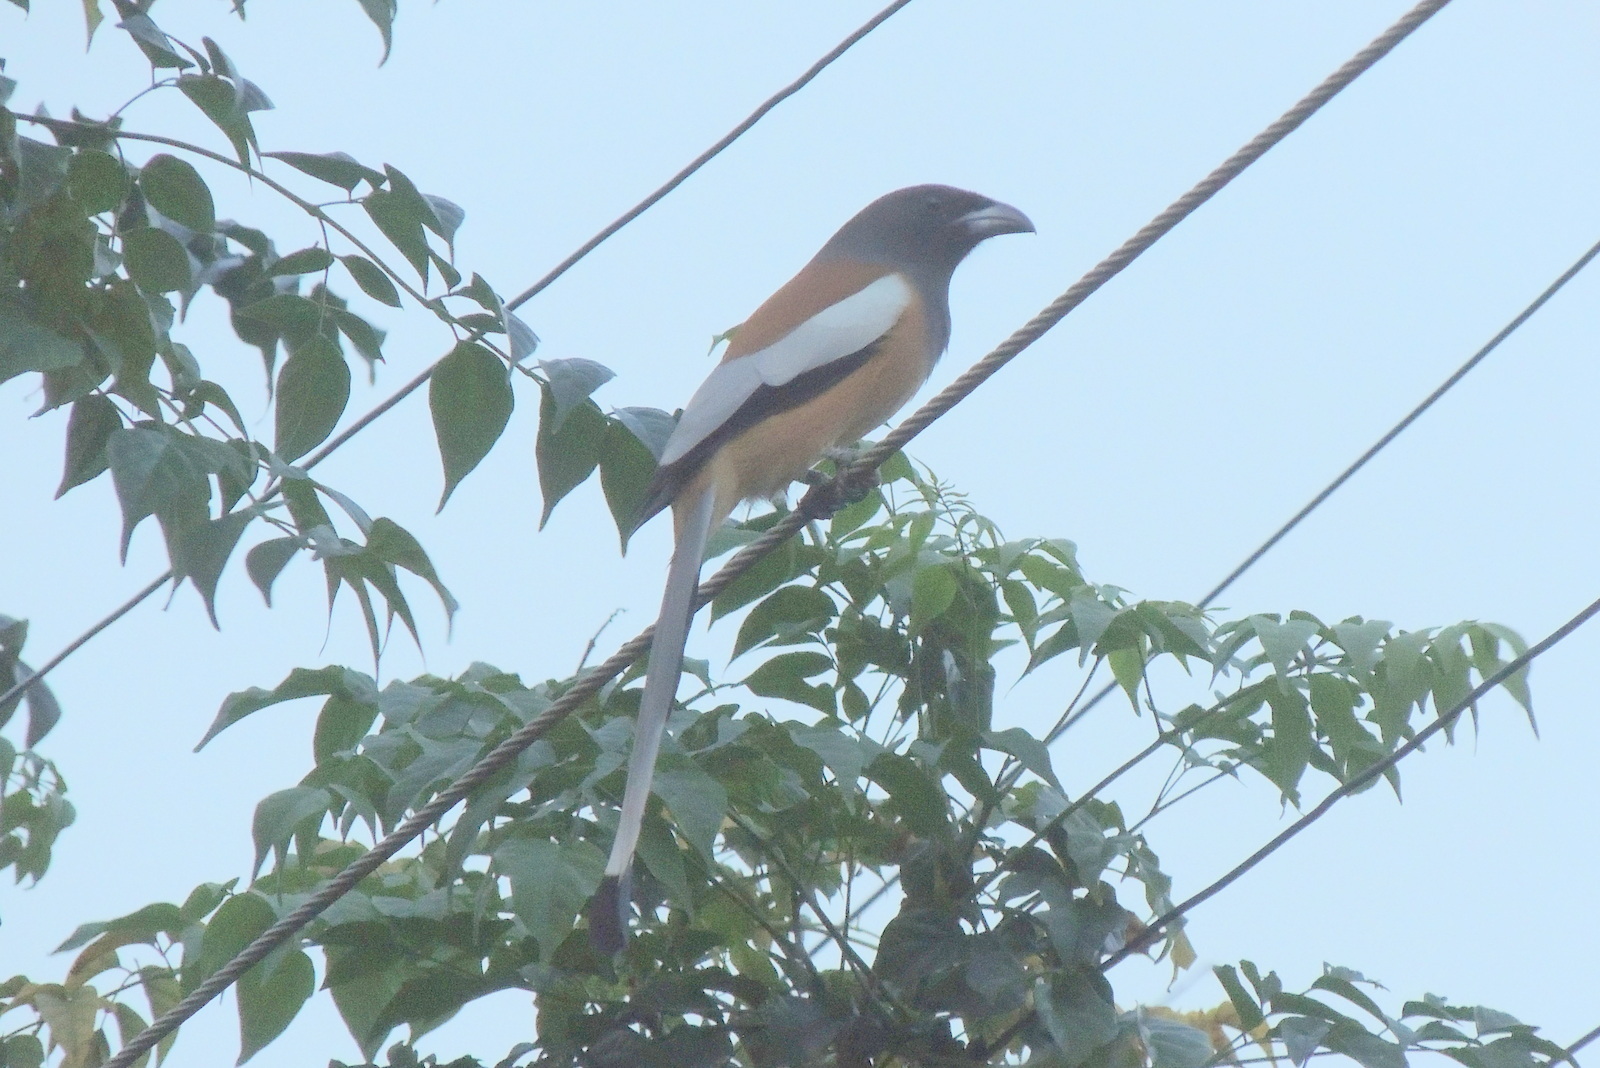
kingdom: Animalia
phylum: Chordata
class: Aves
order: Passeriformes
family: Corvidae
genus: Dendrocitta
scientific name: Dendrocitta vagabunda
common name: Rufous treepie
